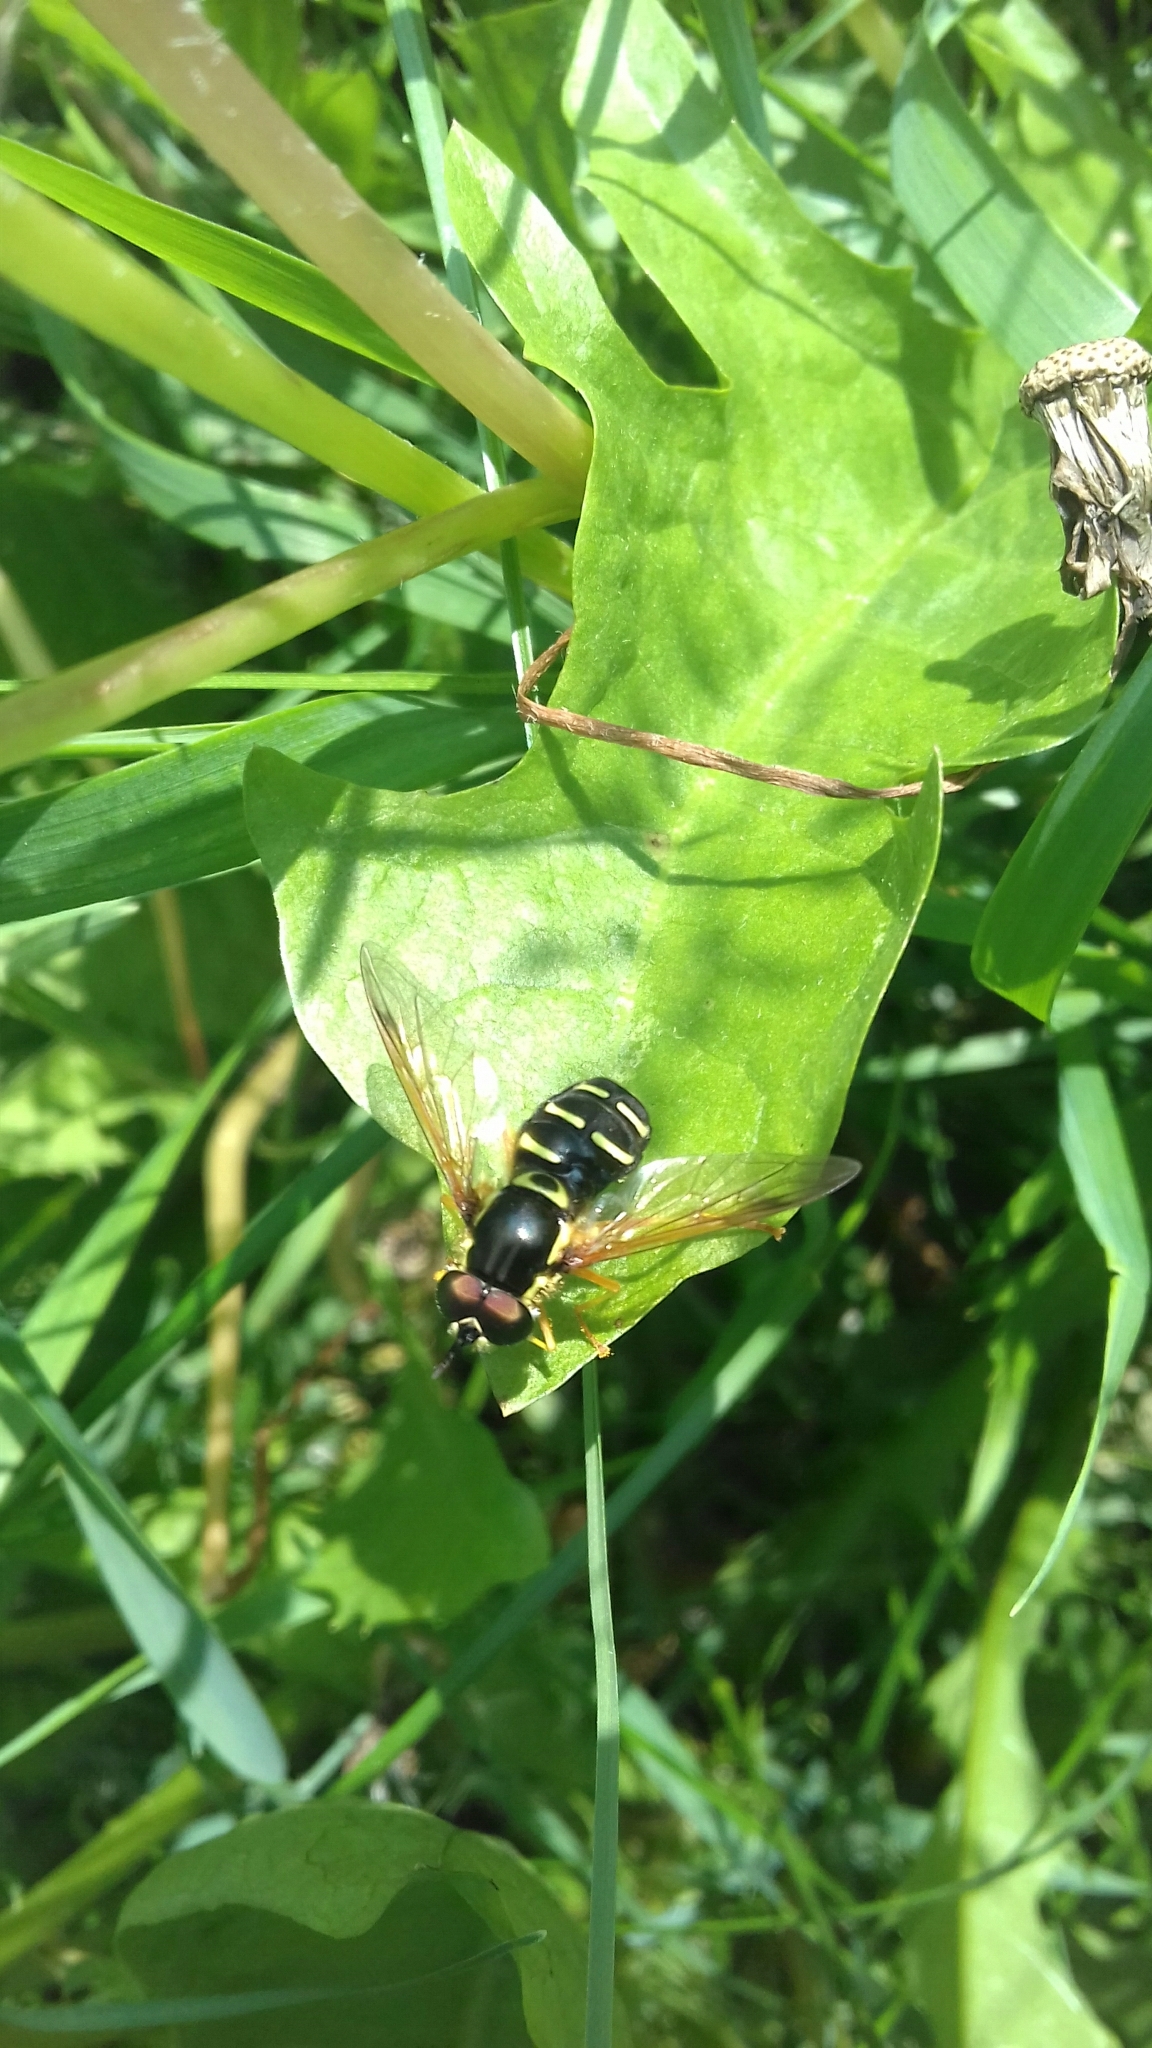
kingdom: Animalia
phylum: Arthropoda
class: Insecta
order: Diptera
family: Syrphidae
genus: Chrysotoxum
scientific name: Chrysotoxum vernale
